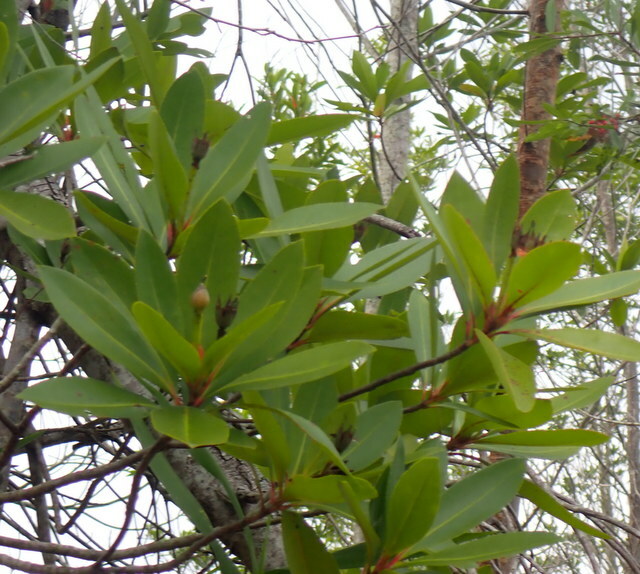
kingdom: Plantae
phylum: Tracheophyta
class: Magnoliopsida
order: Ericales
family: Theaceae
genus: Gordonia
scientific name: Gordonia lasianthus
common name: Loblolly bay
